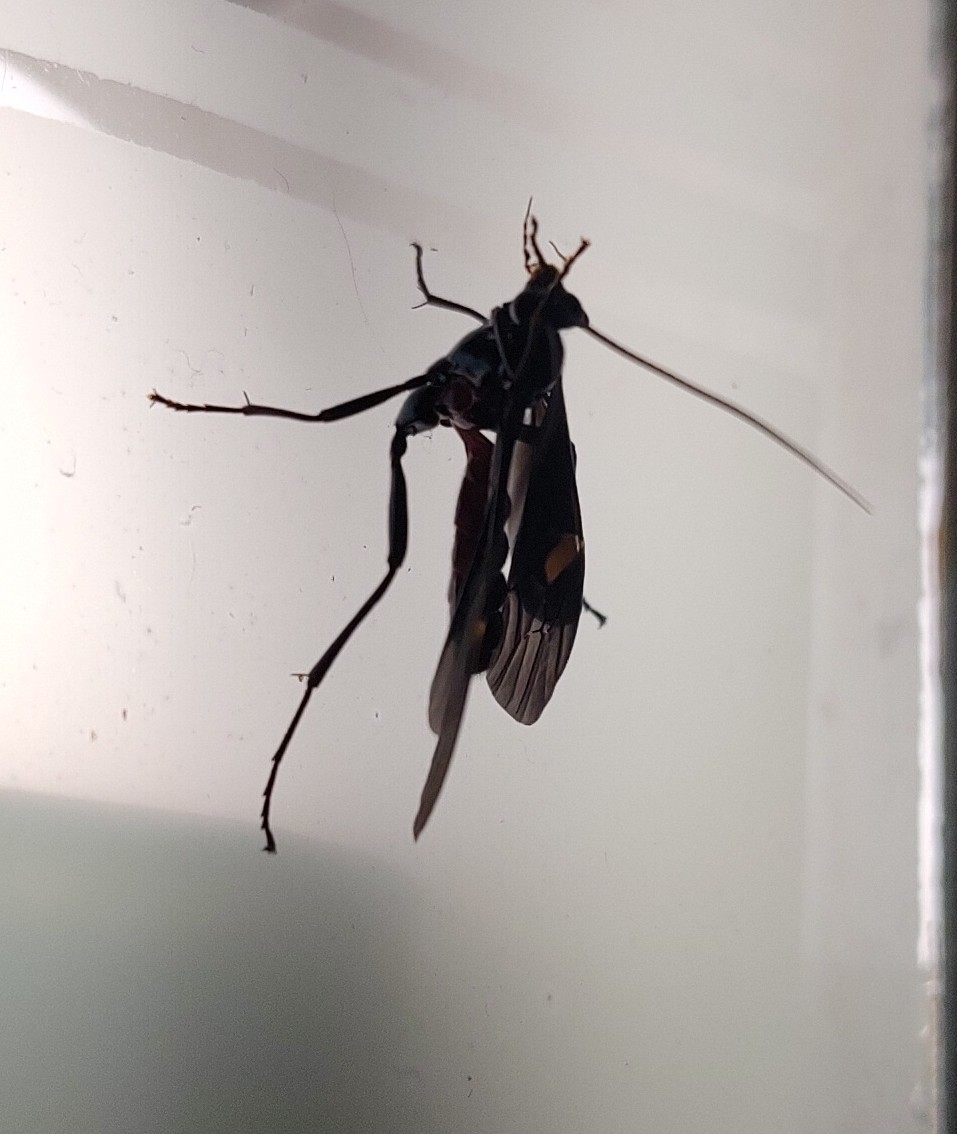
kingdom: Animalia
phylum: Arthropoda
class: Insecta
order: Hymenoptera
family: Ichneumonidae
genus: Pedinopelte
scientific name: Pedinopelte gravenstii
